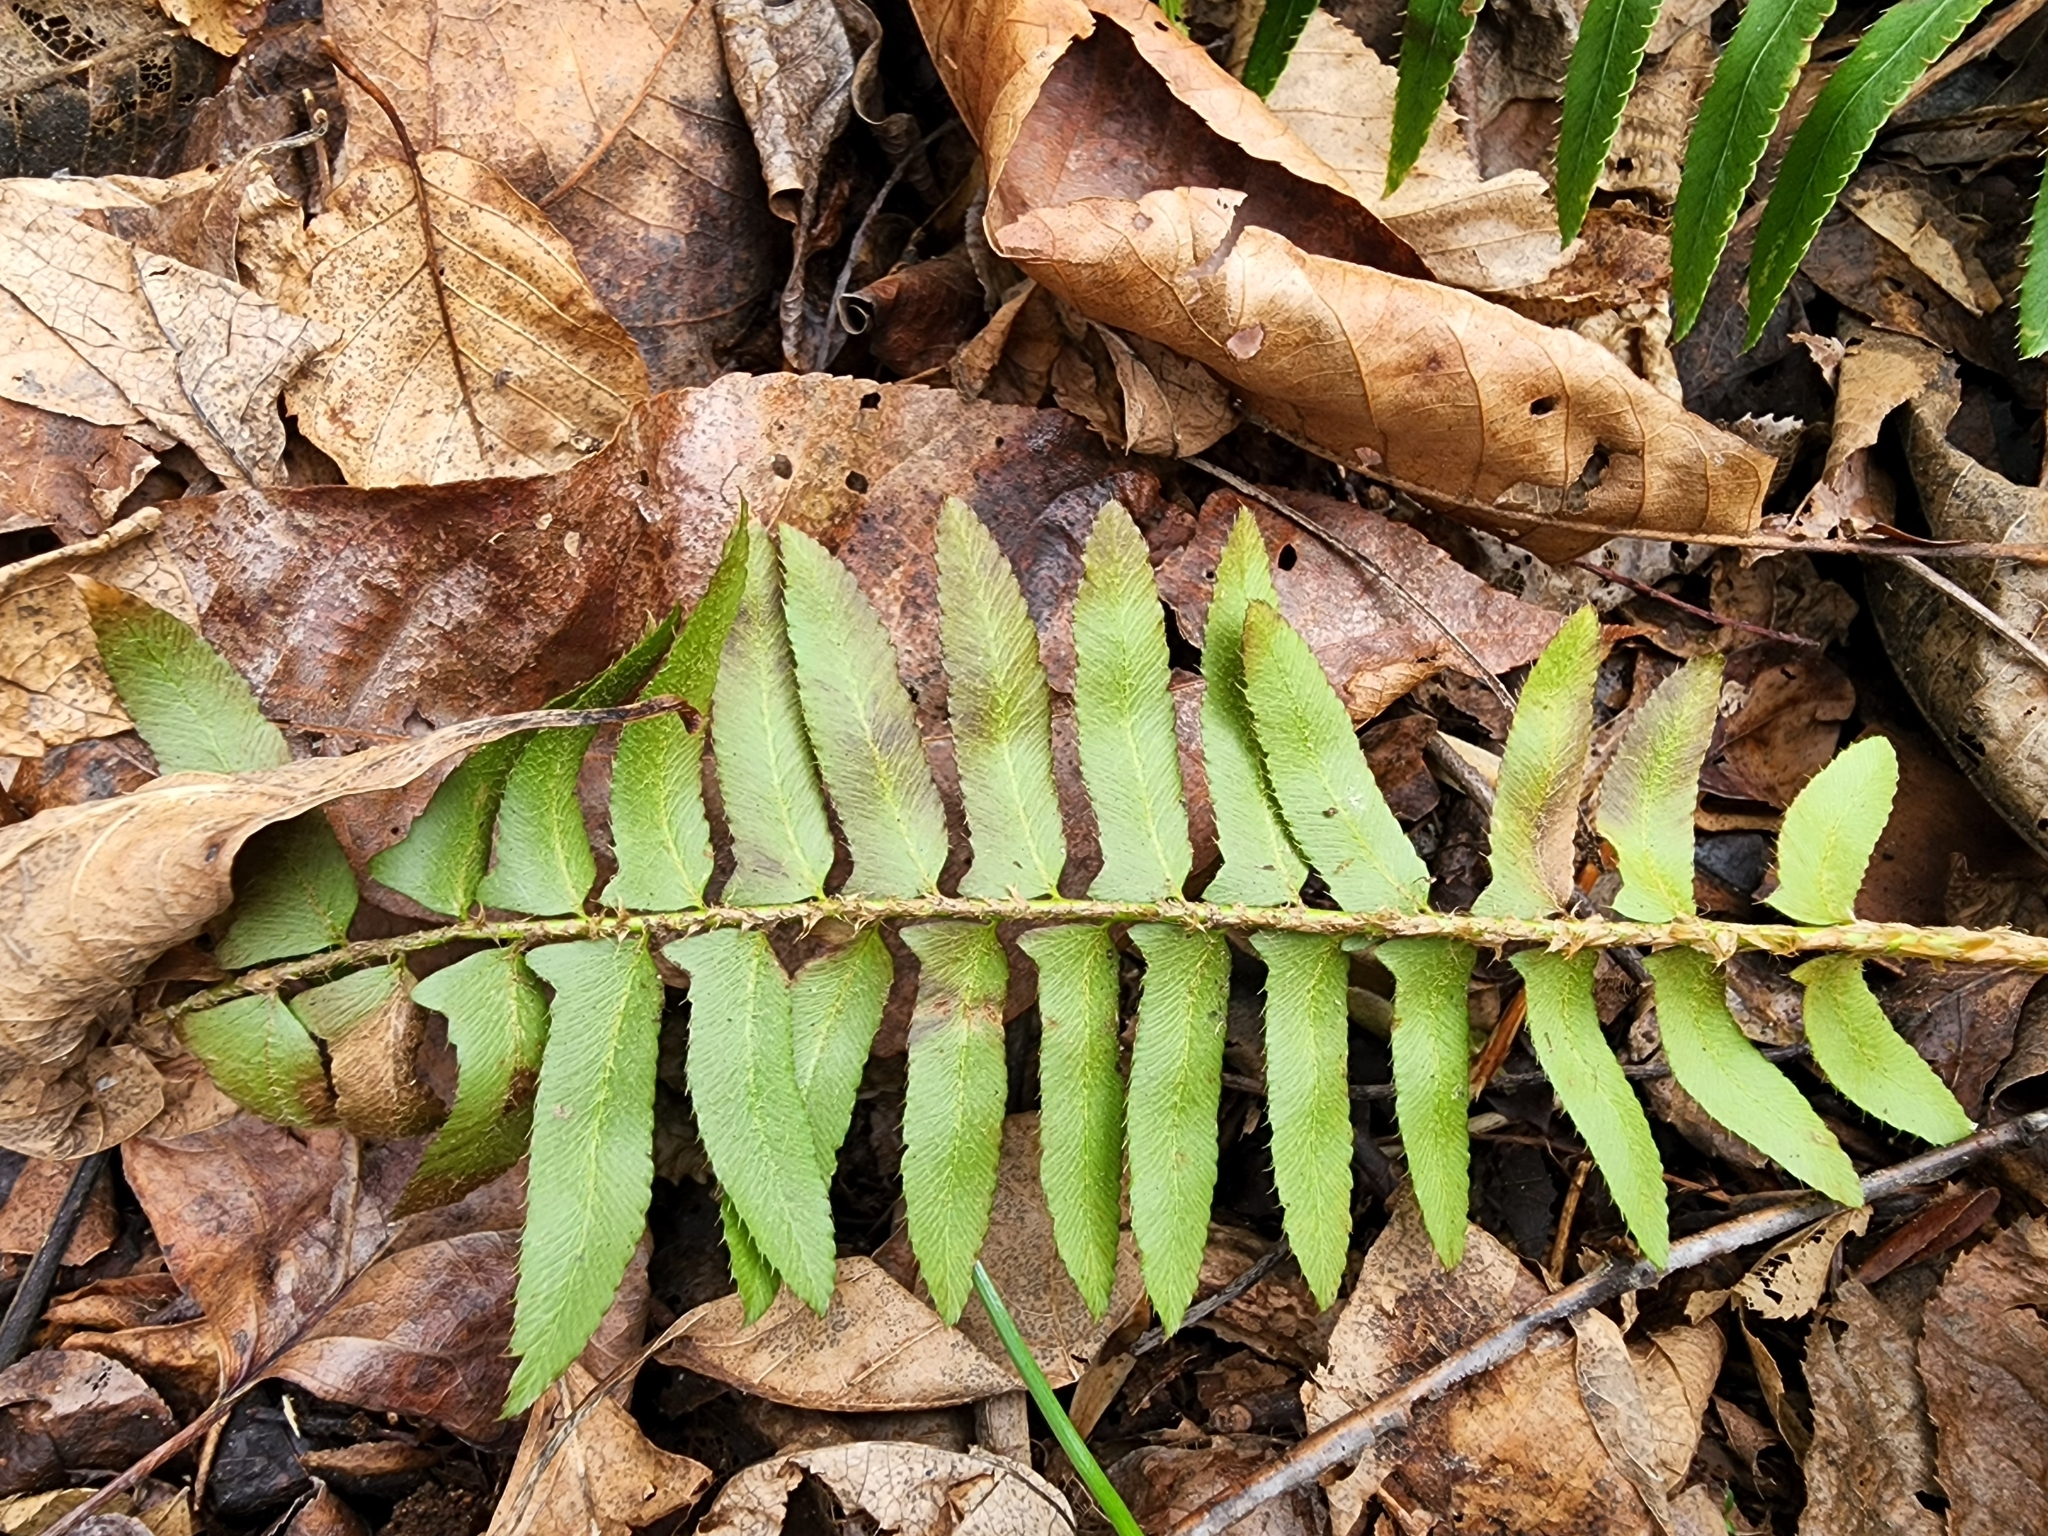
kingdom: Plantae
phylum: Tracheophyta
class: Polypodiopsida
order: Polypodiales
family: Dryopteridaceae
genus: Polystichum
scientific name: Polystichum acrostichoides
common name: Christmas fern
